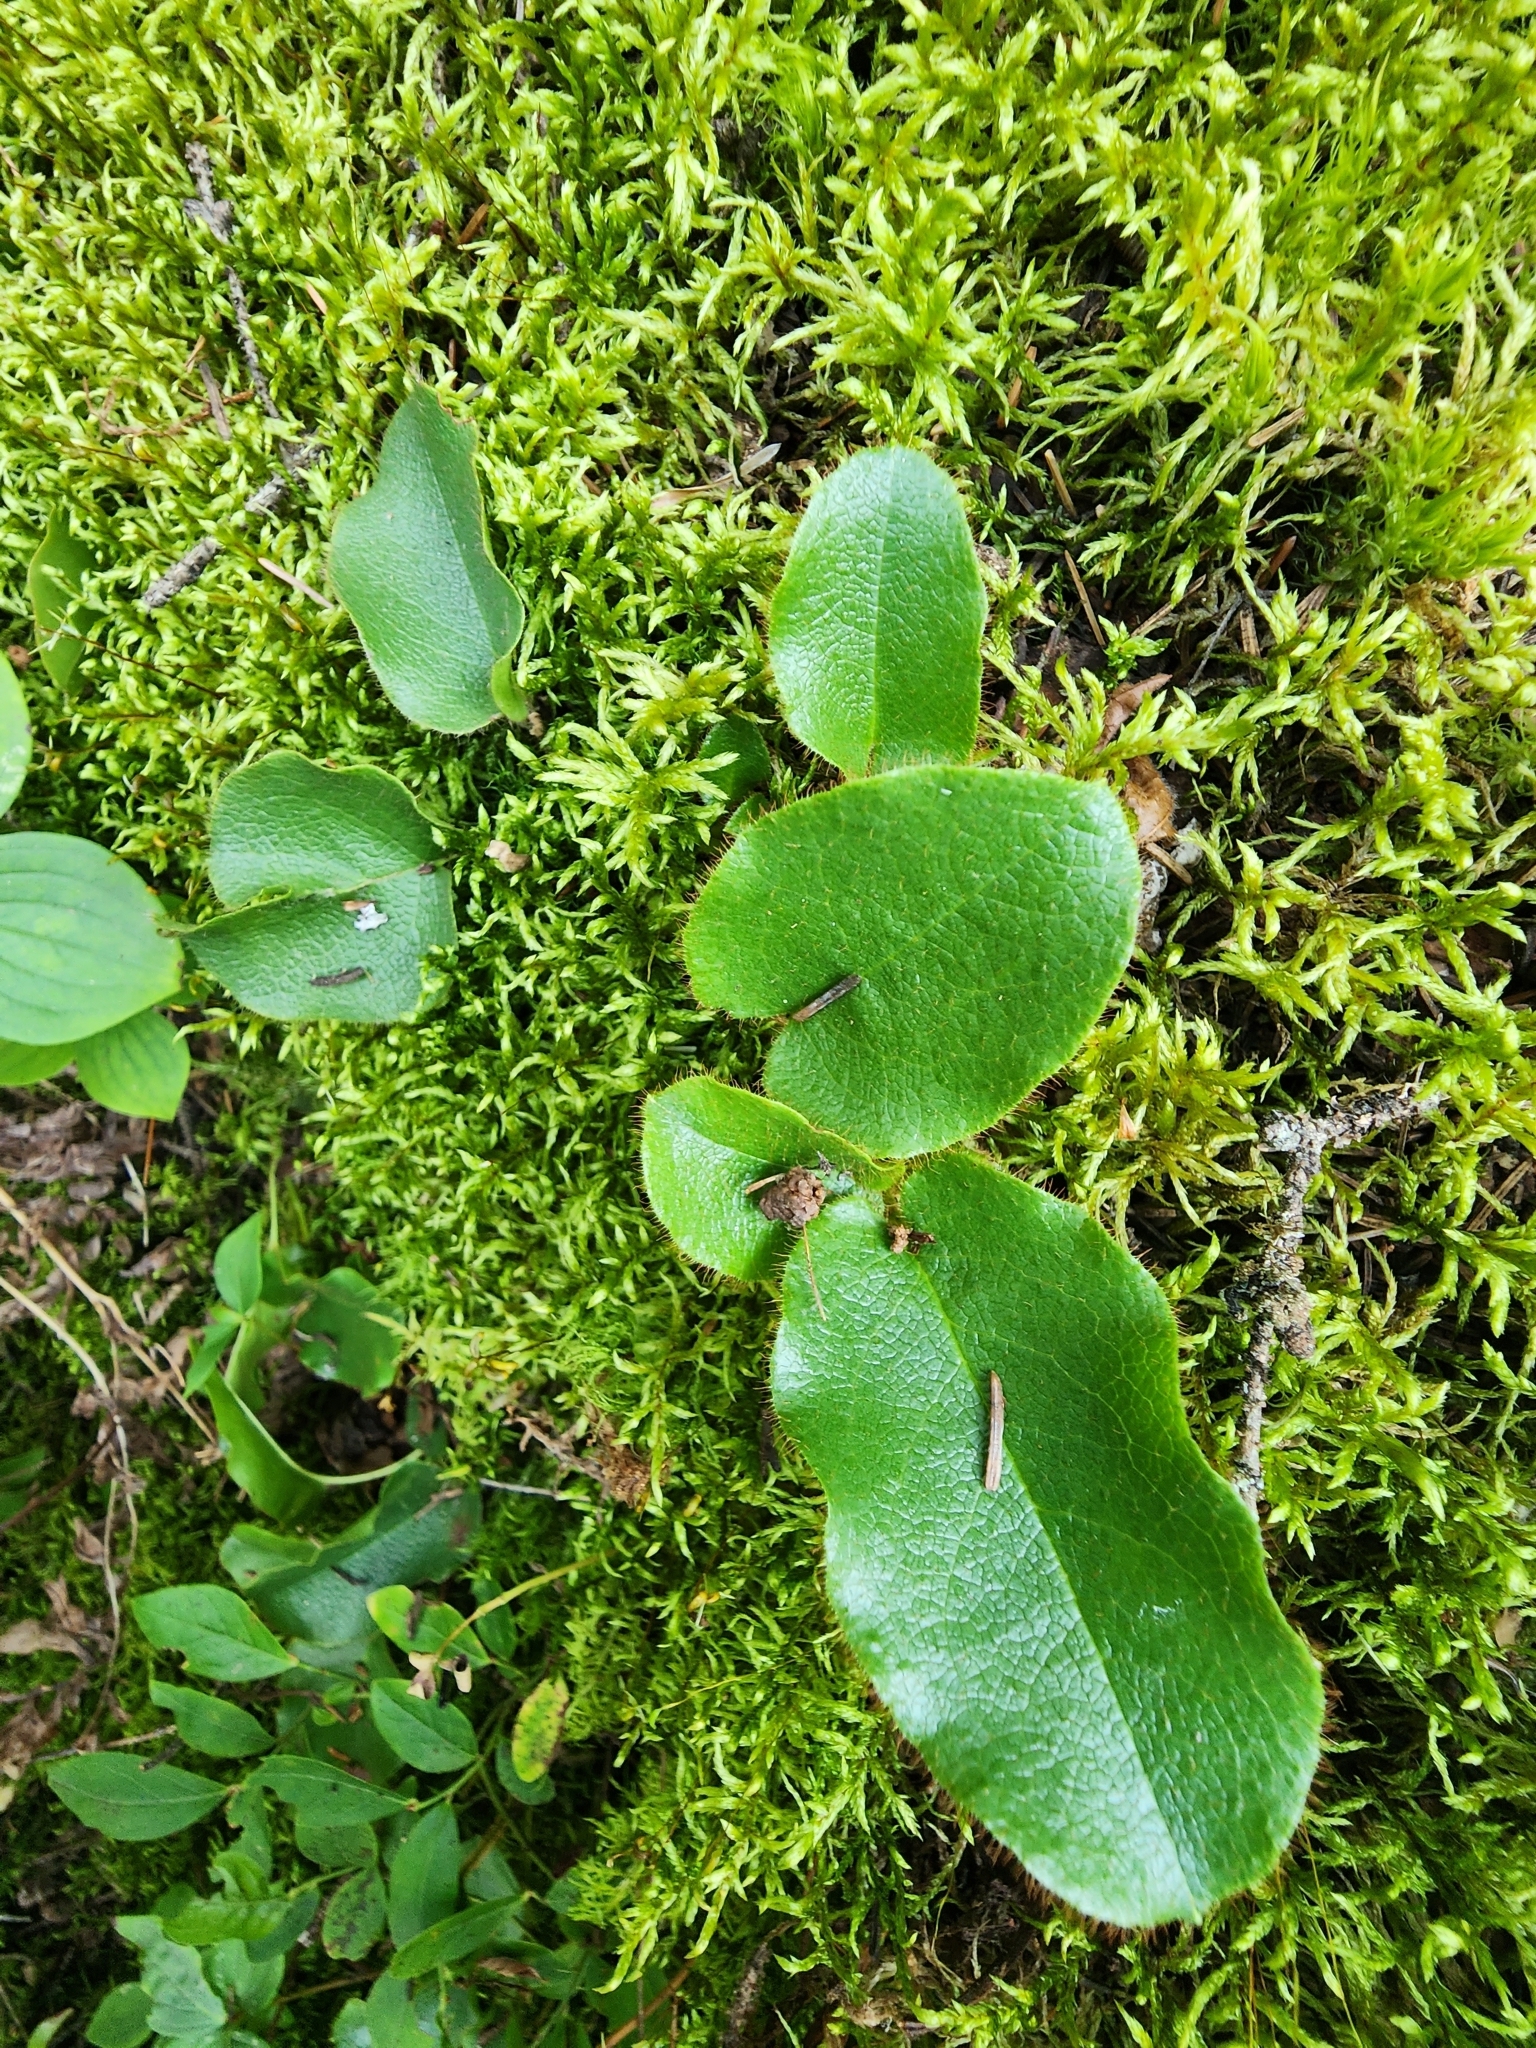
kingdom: Plantae
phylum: Tracheophyta
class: Magnoliopsida
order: Ericales
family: Ericaceae
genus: Epigaea
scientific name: Epigaea repens
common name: Gravelroot
